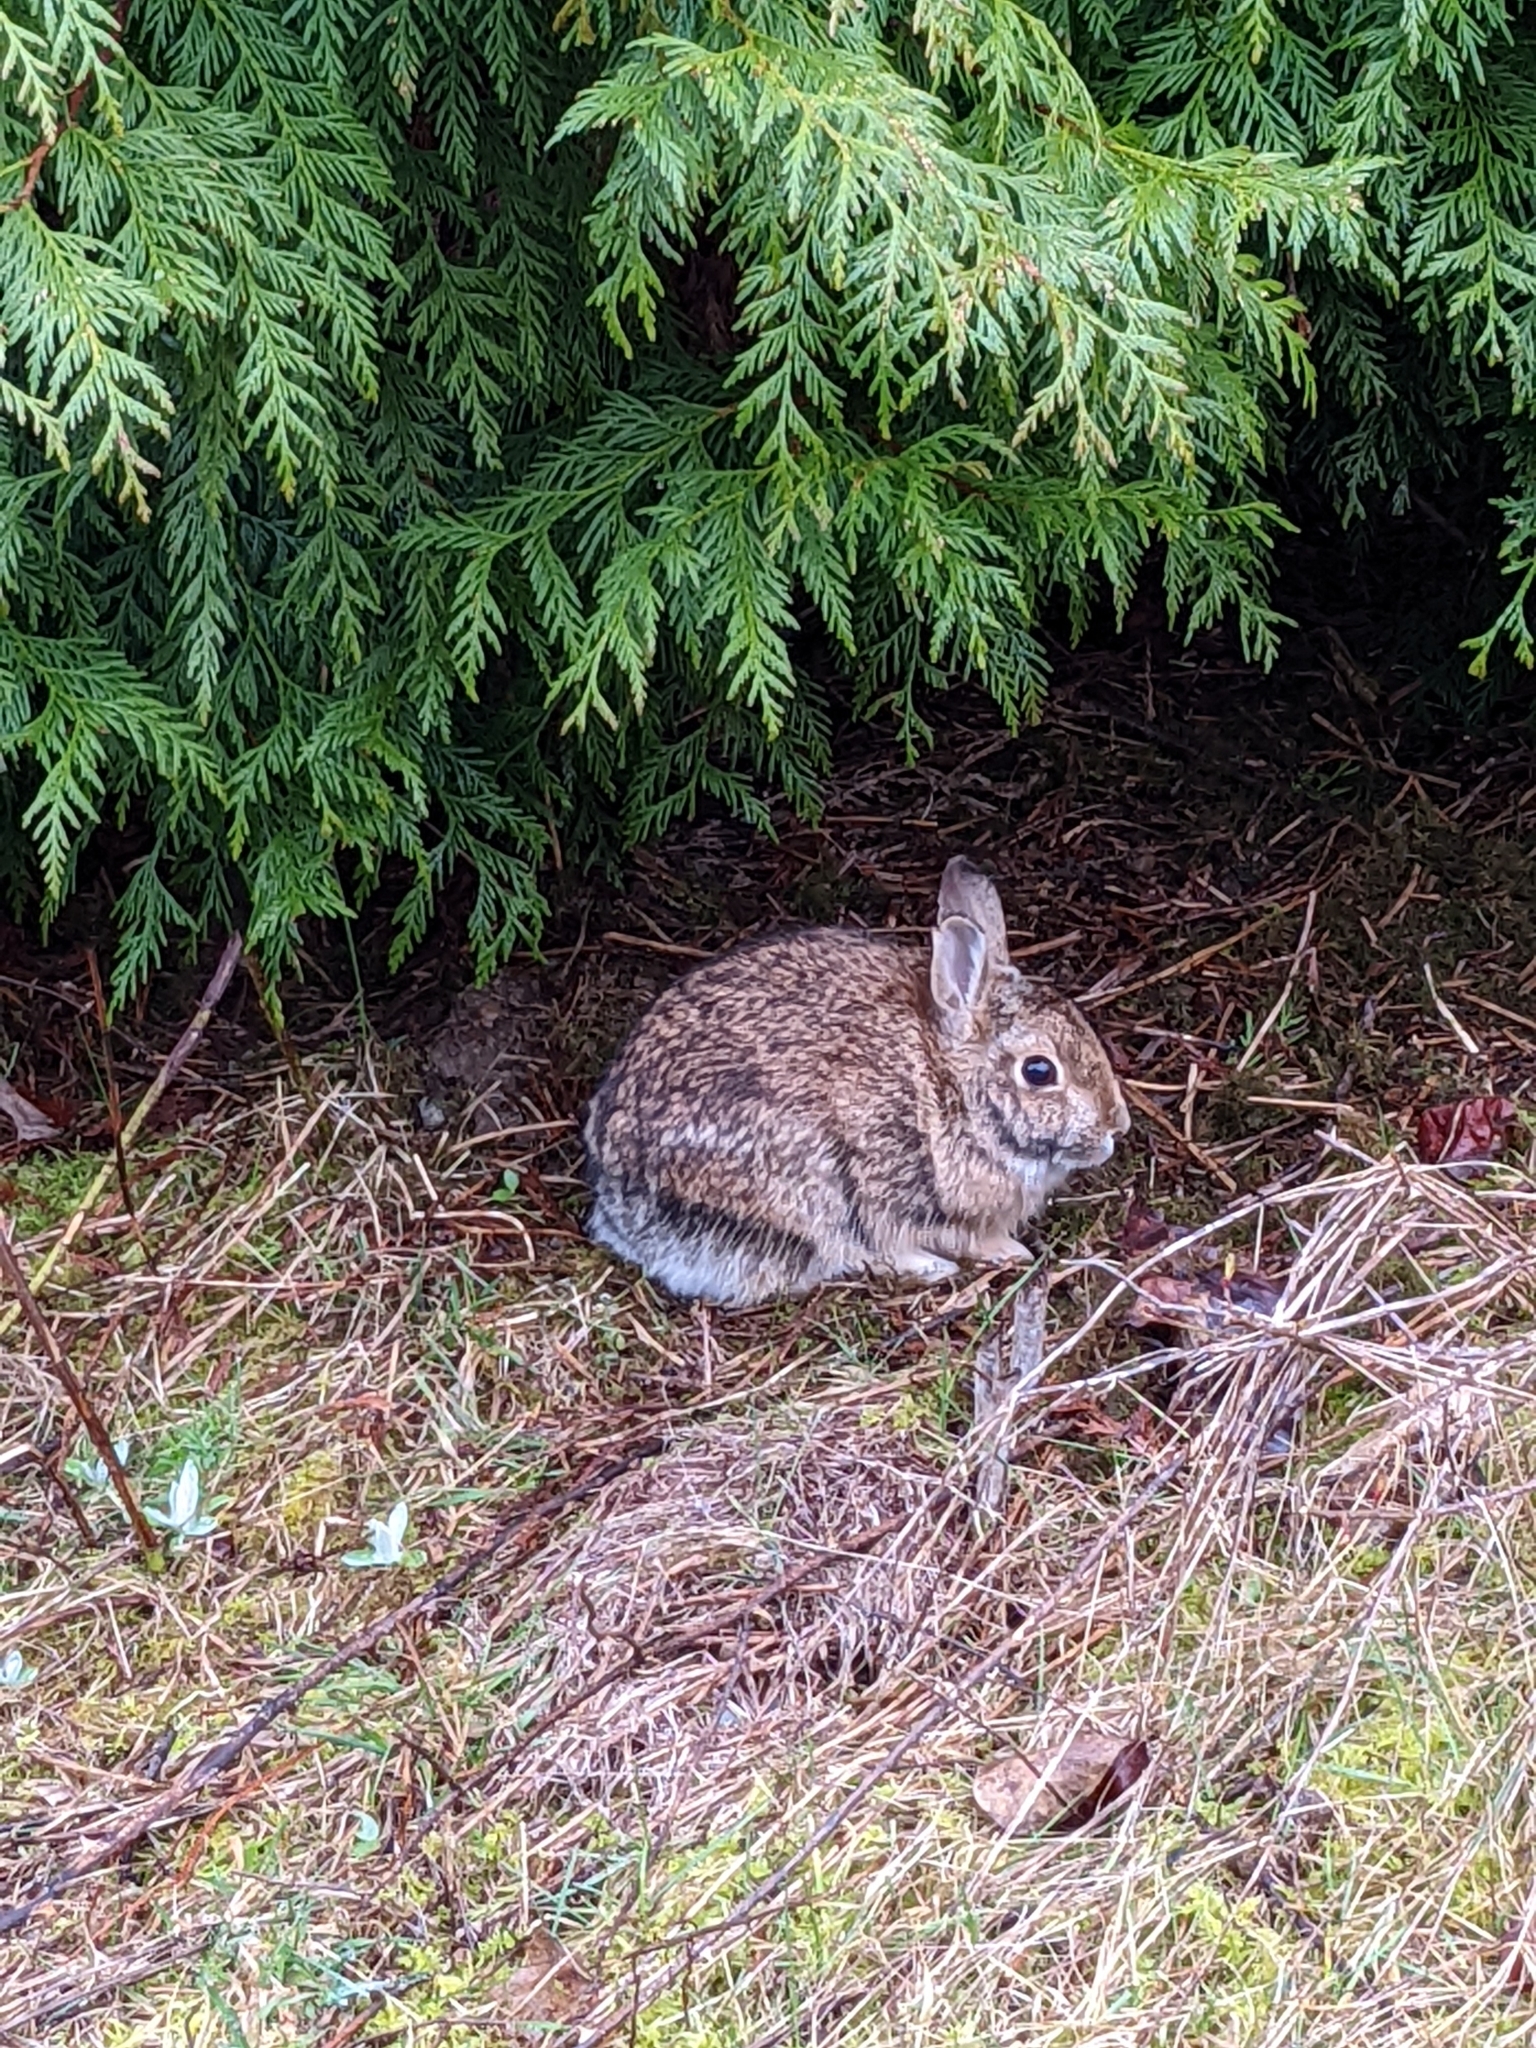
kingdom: Animalia
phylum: Chordata
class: Mammalia
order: Lagomorpha
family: Leporidae
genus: Sylvilagus
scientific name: Sylvilagus floridanus
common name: Eastern cottontail
